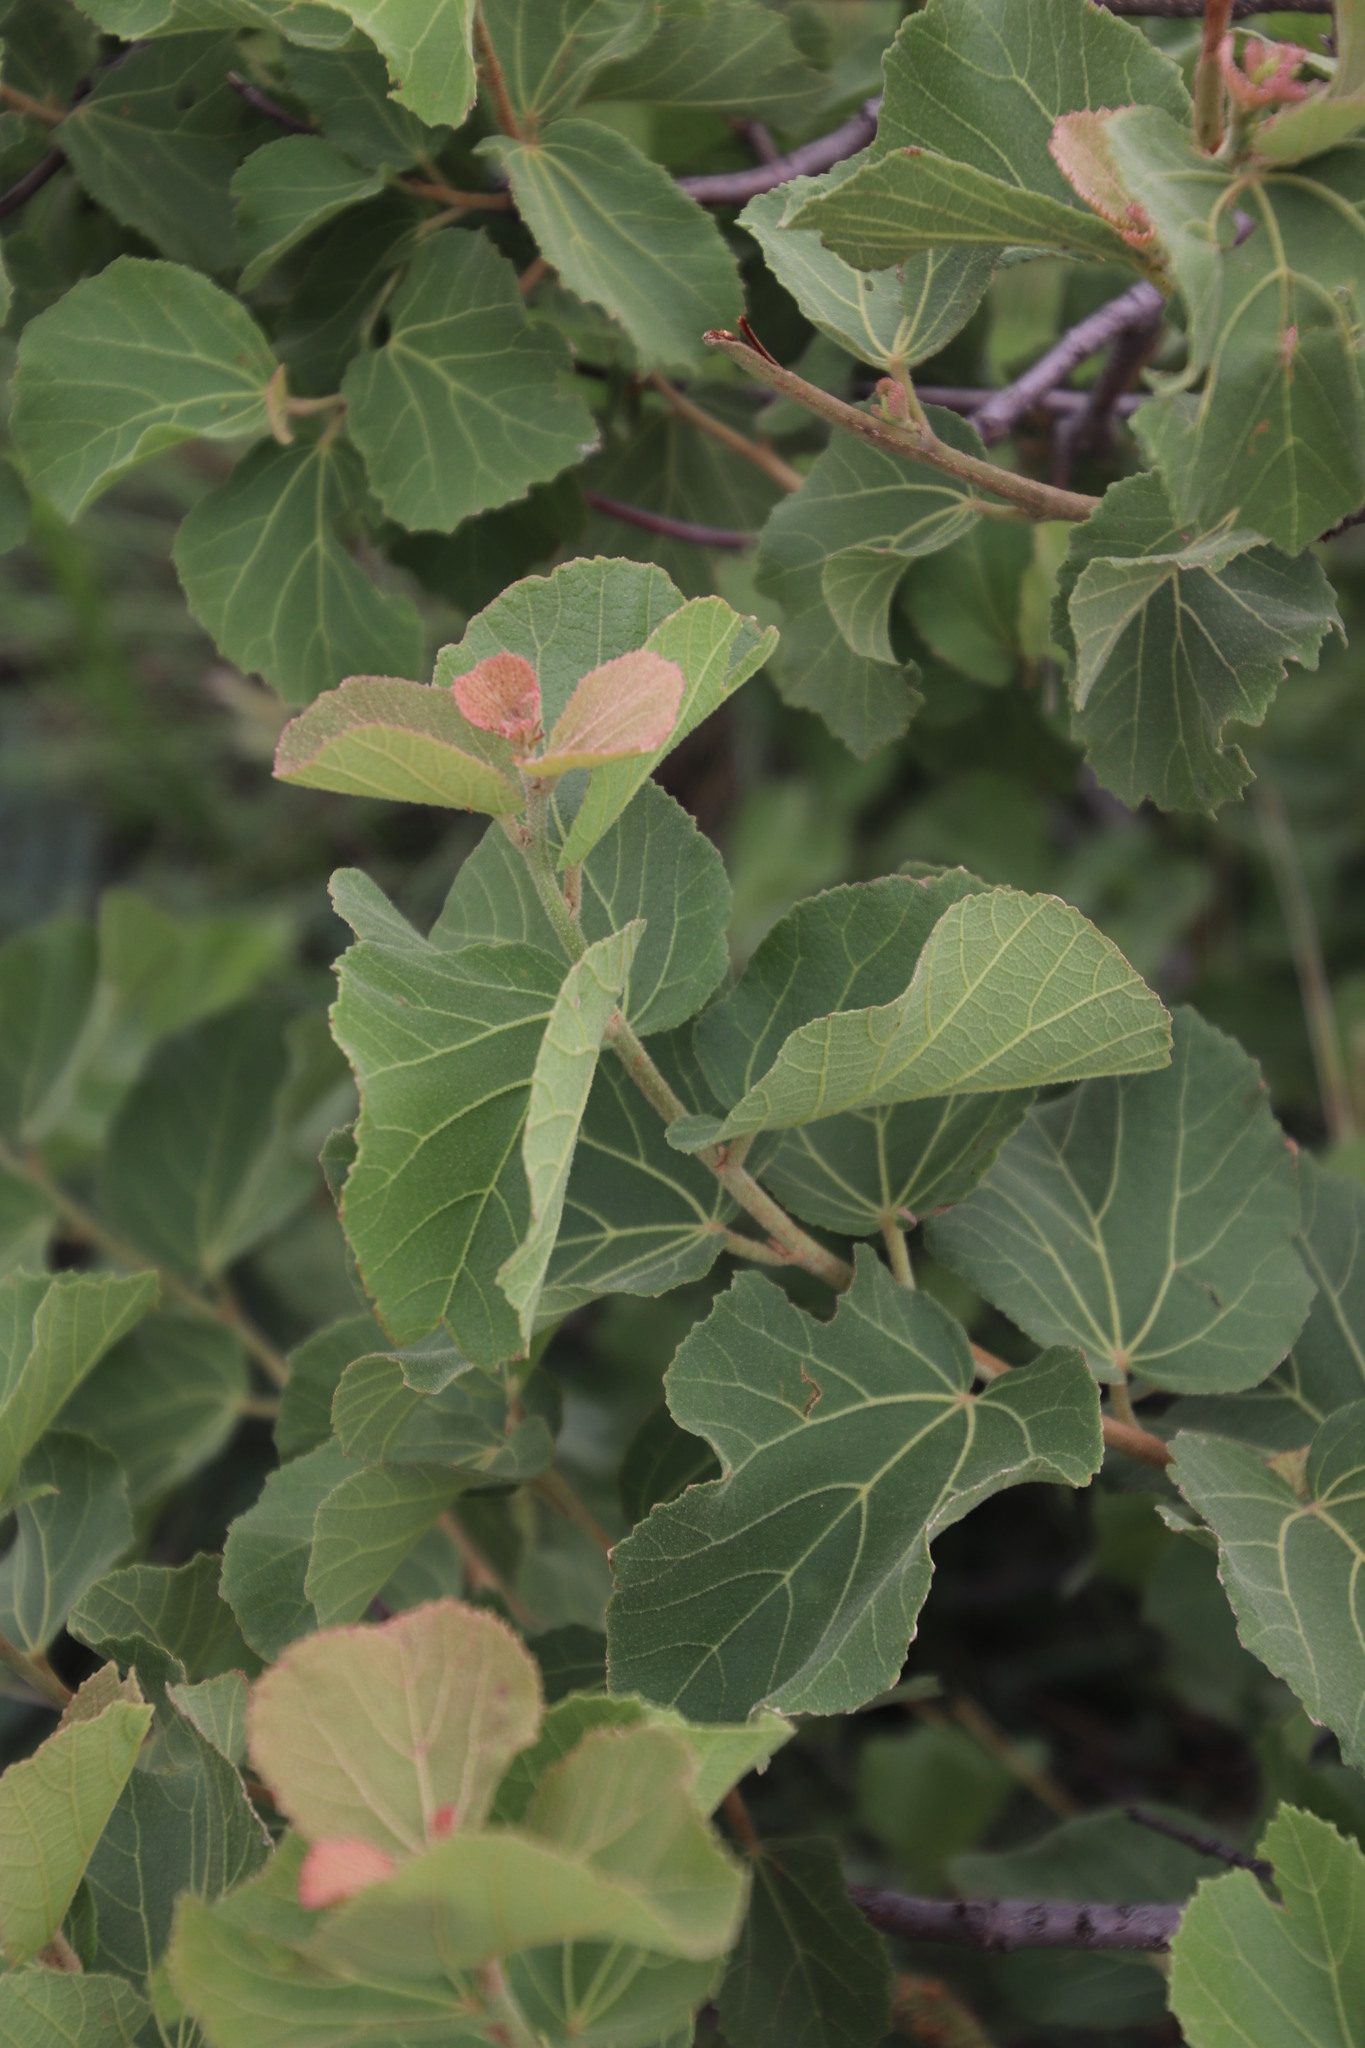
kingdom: Plantae
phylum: Tracheophyta
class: Magnoliopsida
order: Malvales
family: Malvaceae
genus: Dombeya
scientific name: Dombeya rotundifolia
